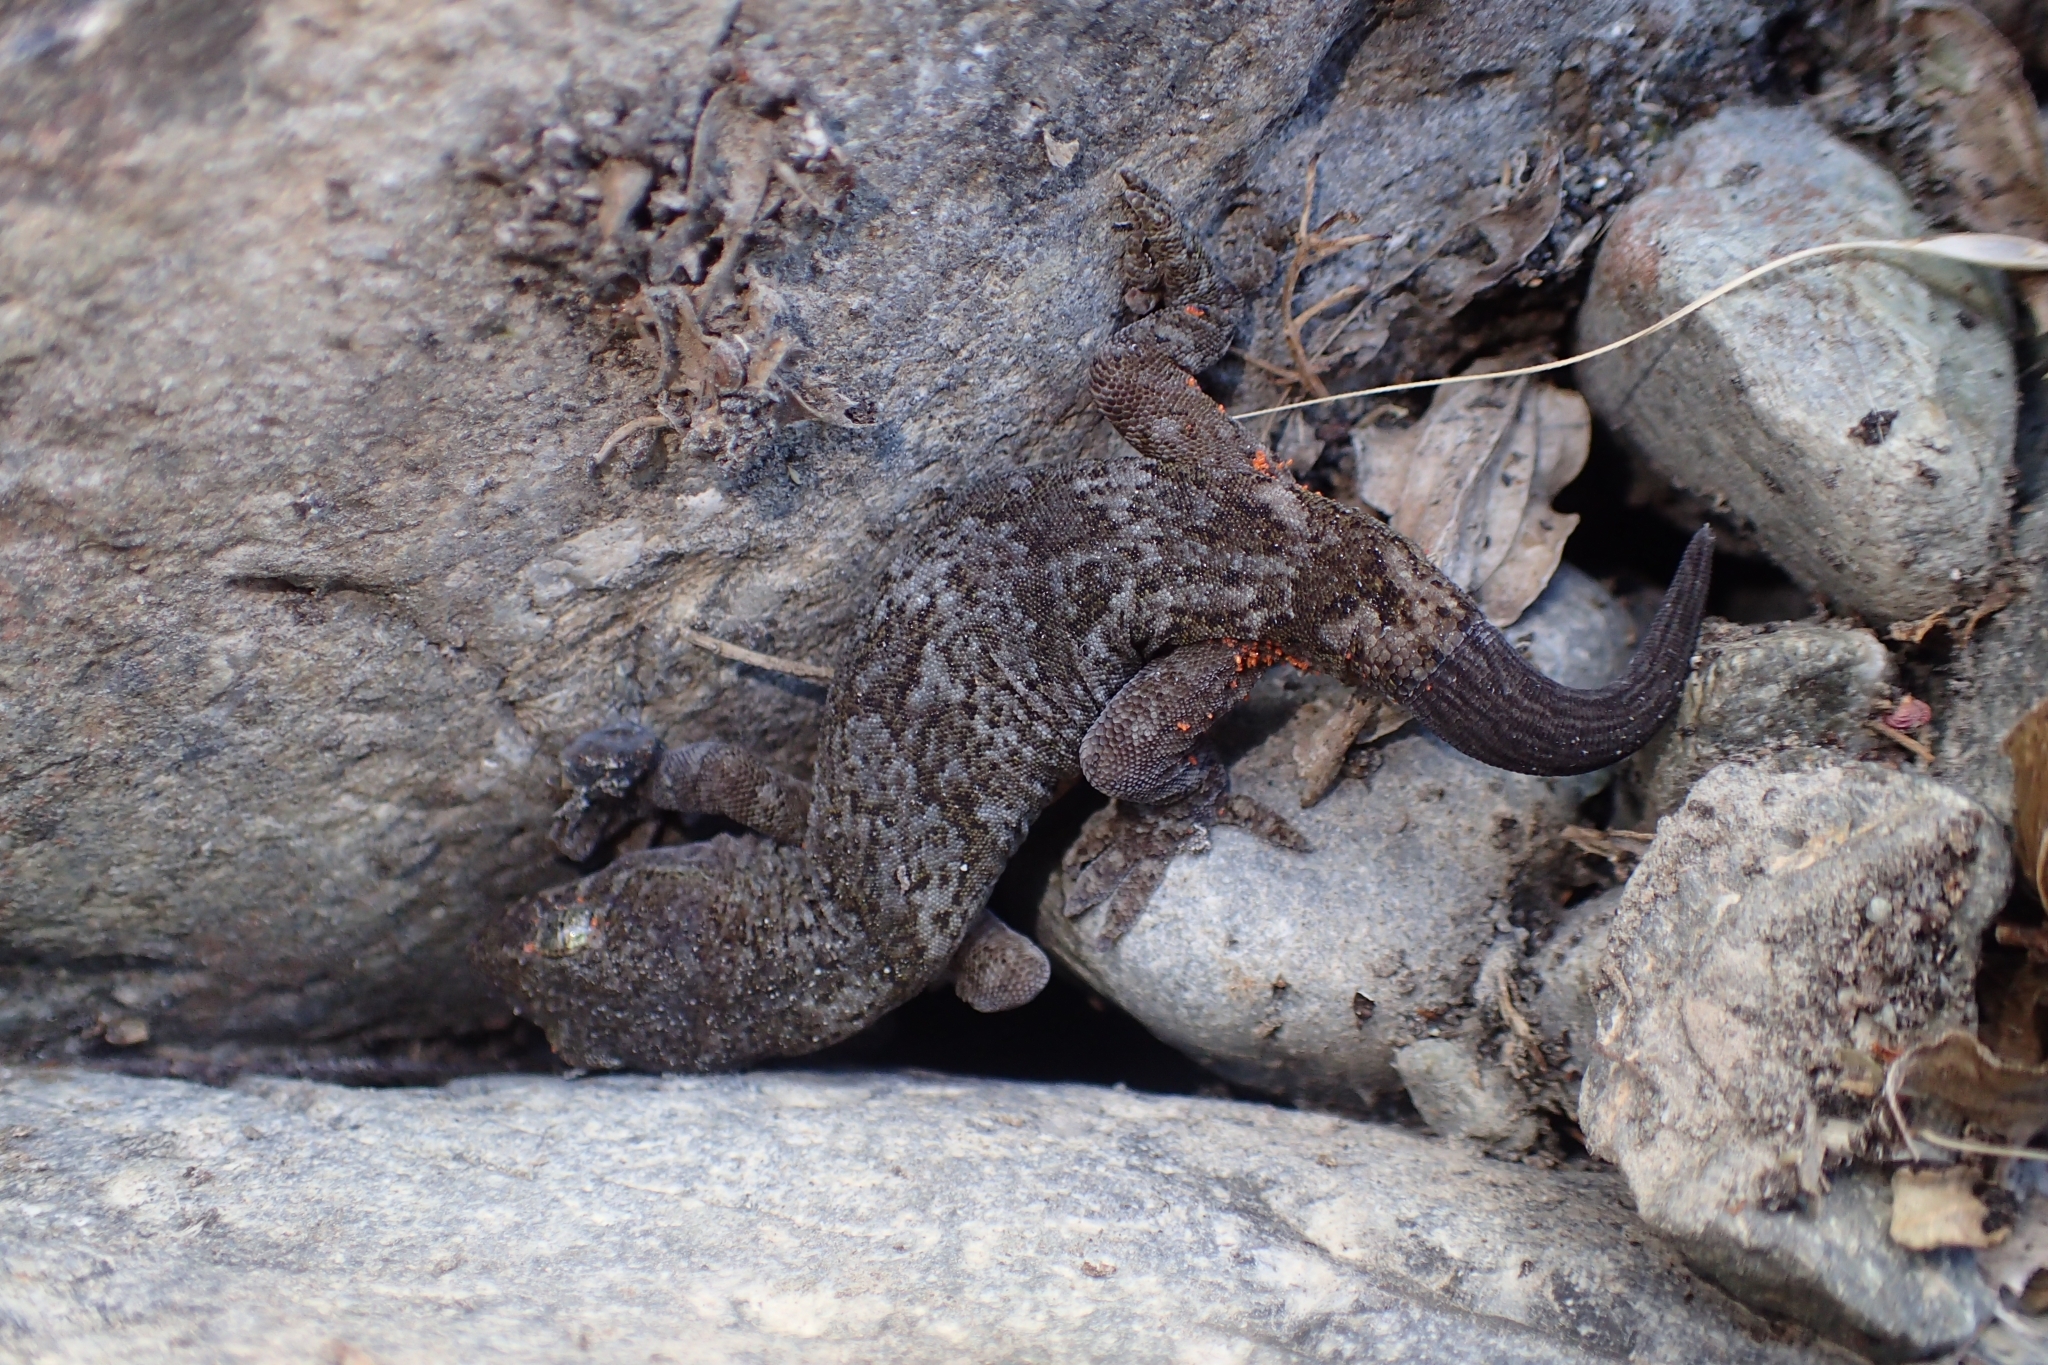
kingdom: Animalia
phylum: Chordata
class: Squamata
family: Diplodactylidae
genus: Woodworthia
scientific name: Woodworthia
